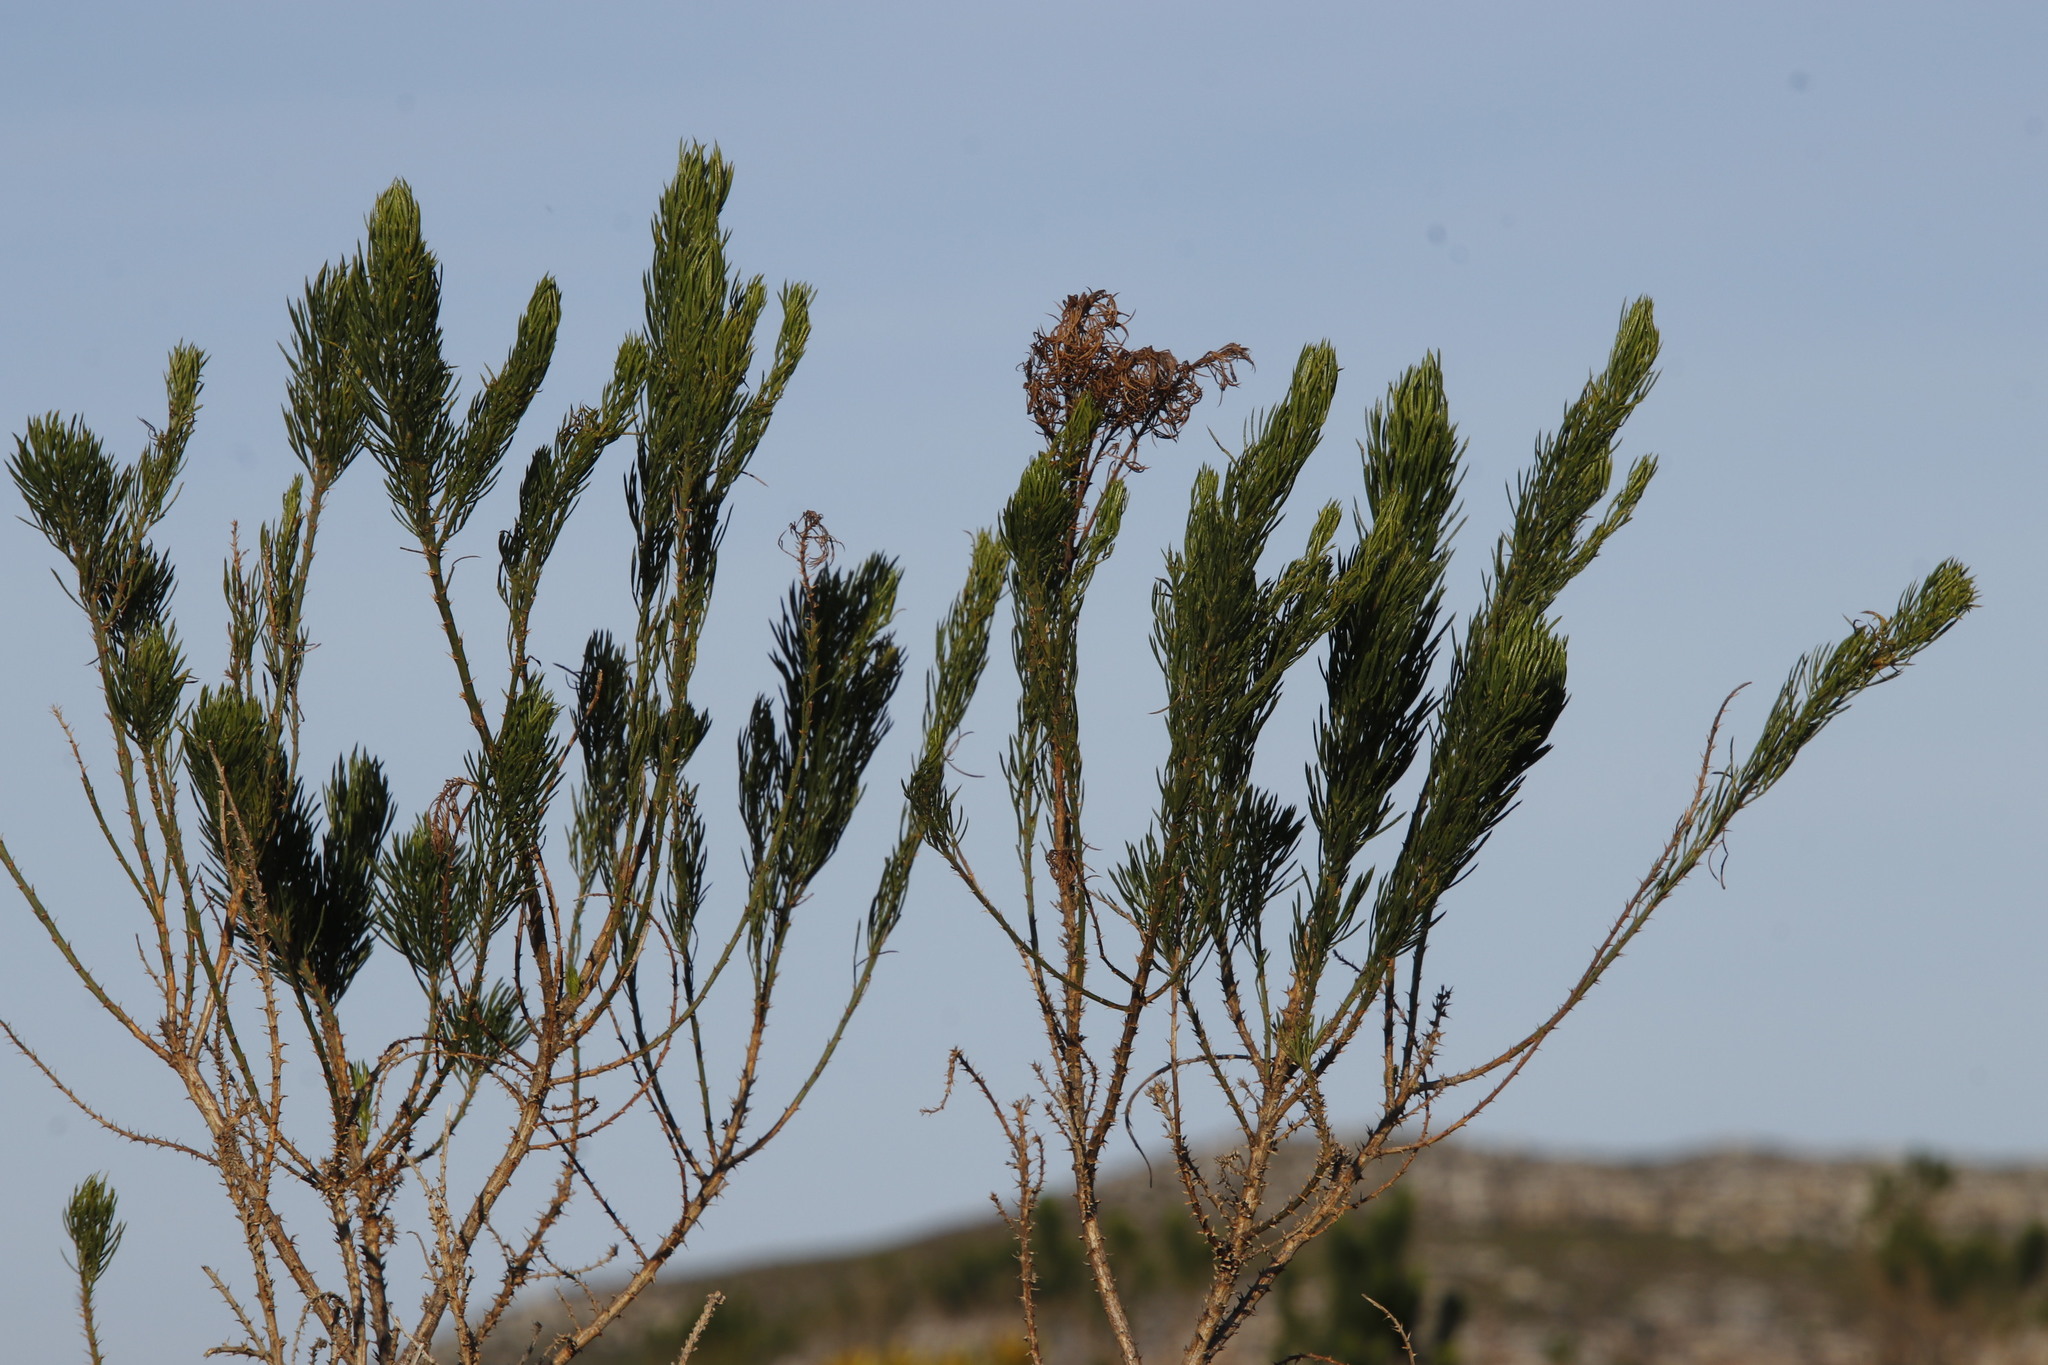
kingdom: Plantae
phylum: Tracheophyta
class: Magnoliopsida
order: Fabales
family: Fabaceae
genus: Psoralea
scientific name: Psoralea pinnata
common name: African scurfpea
